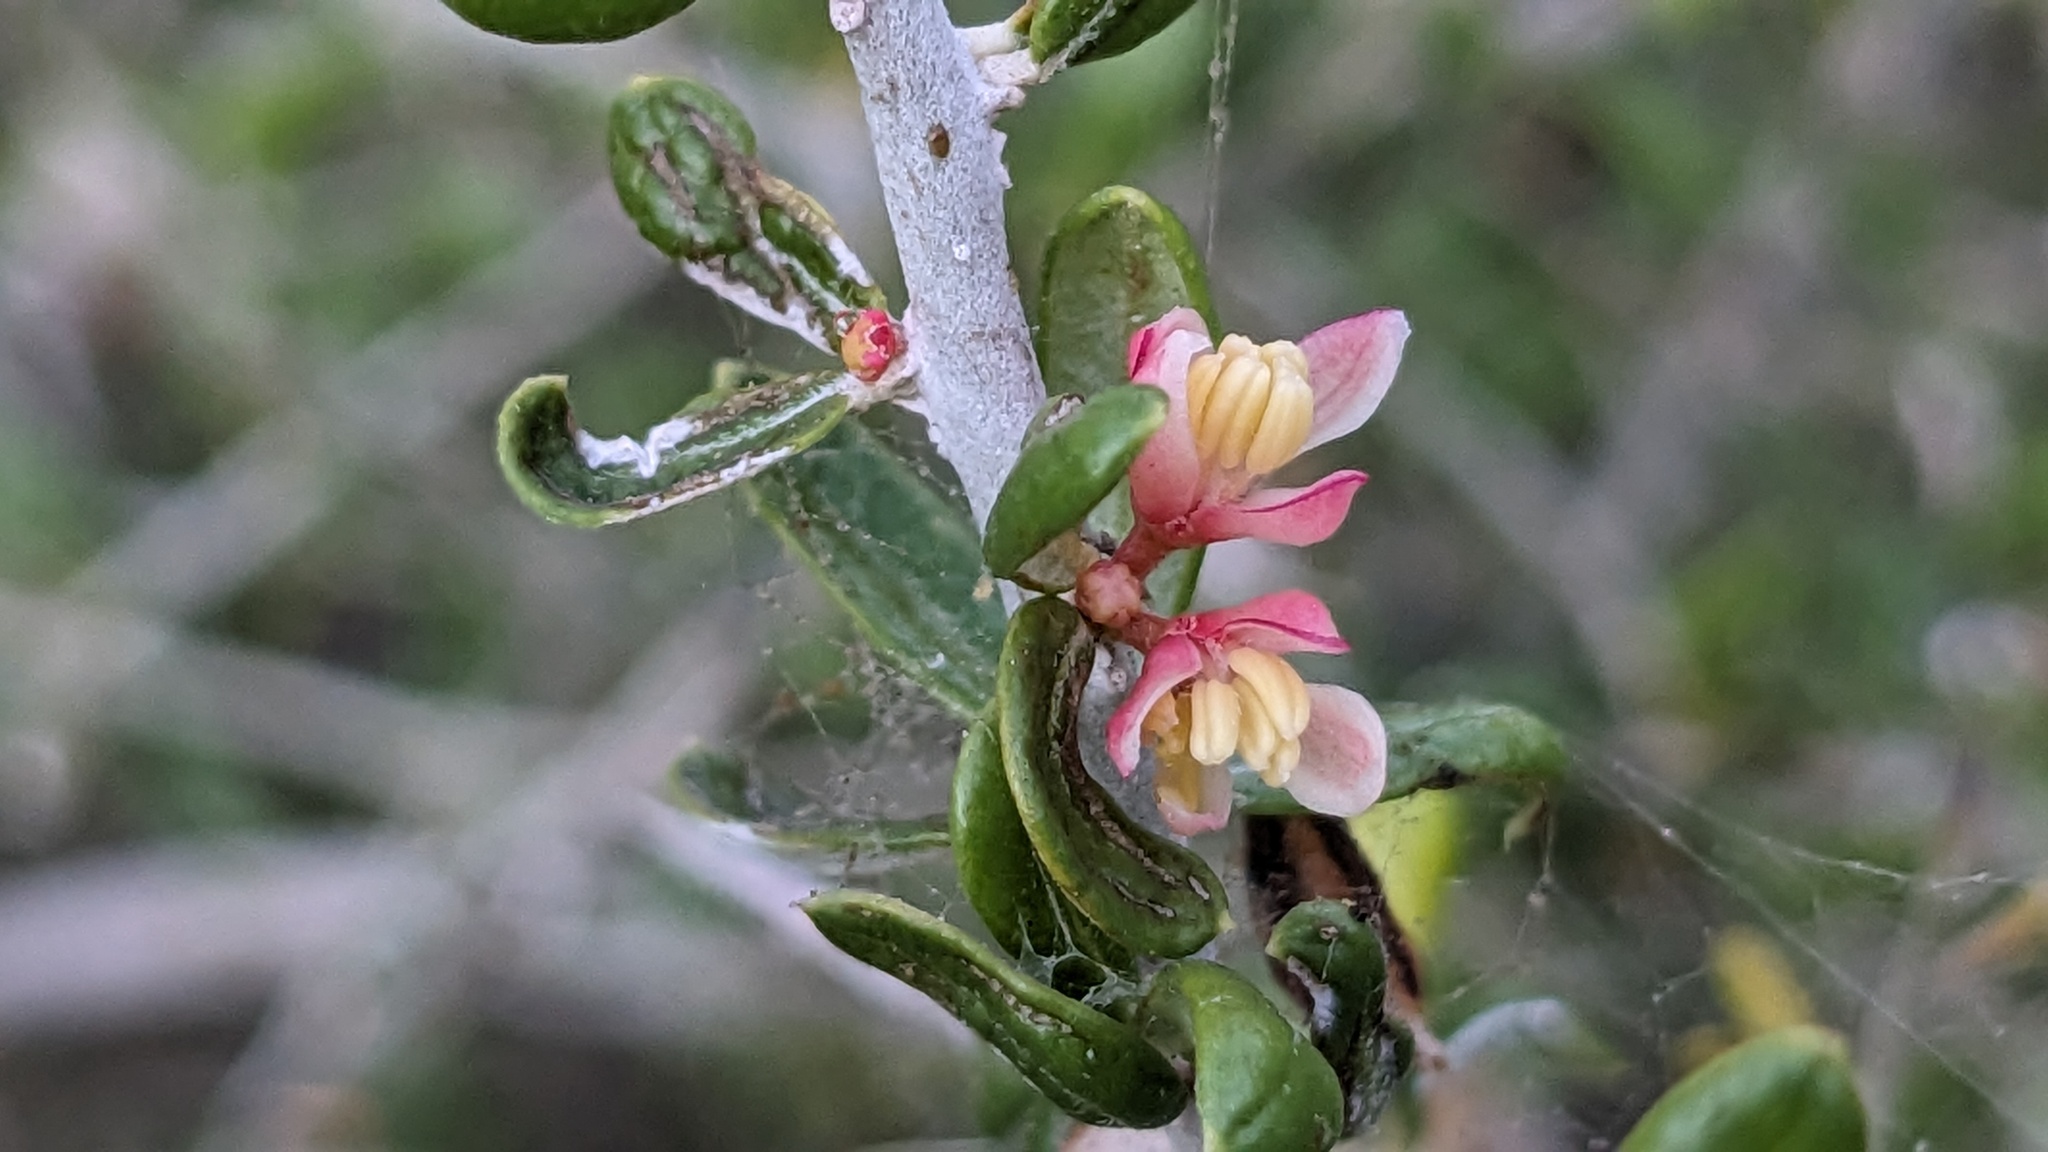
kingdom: Plantae
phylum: Tracheophyta
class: Magnoliopsida
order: Sapindales
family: Simaroubaceae
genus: Castela
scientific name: Castela erecta
